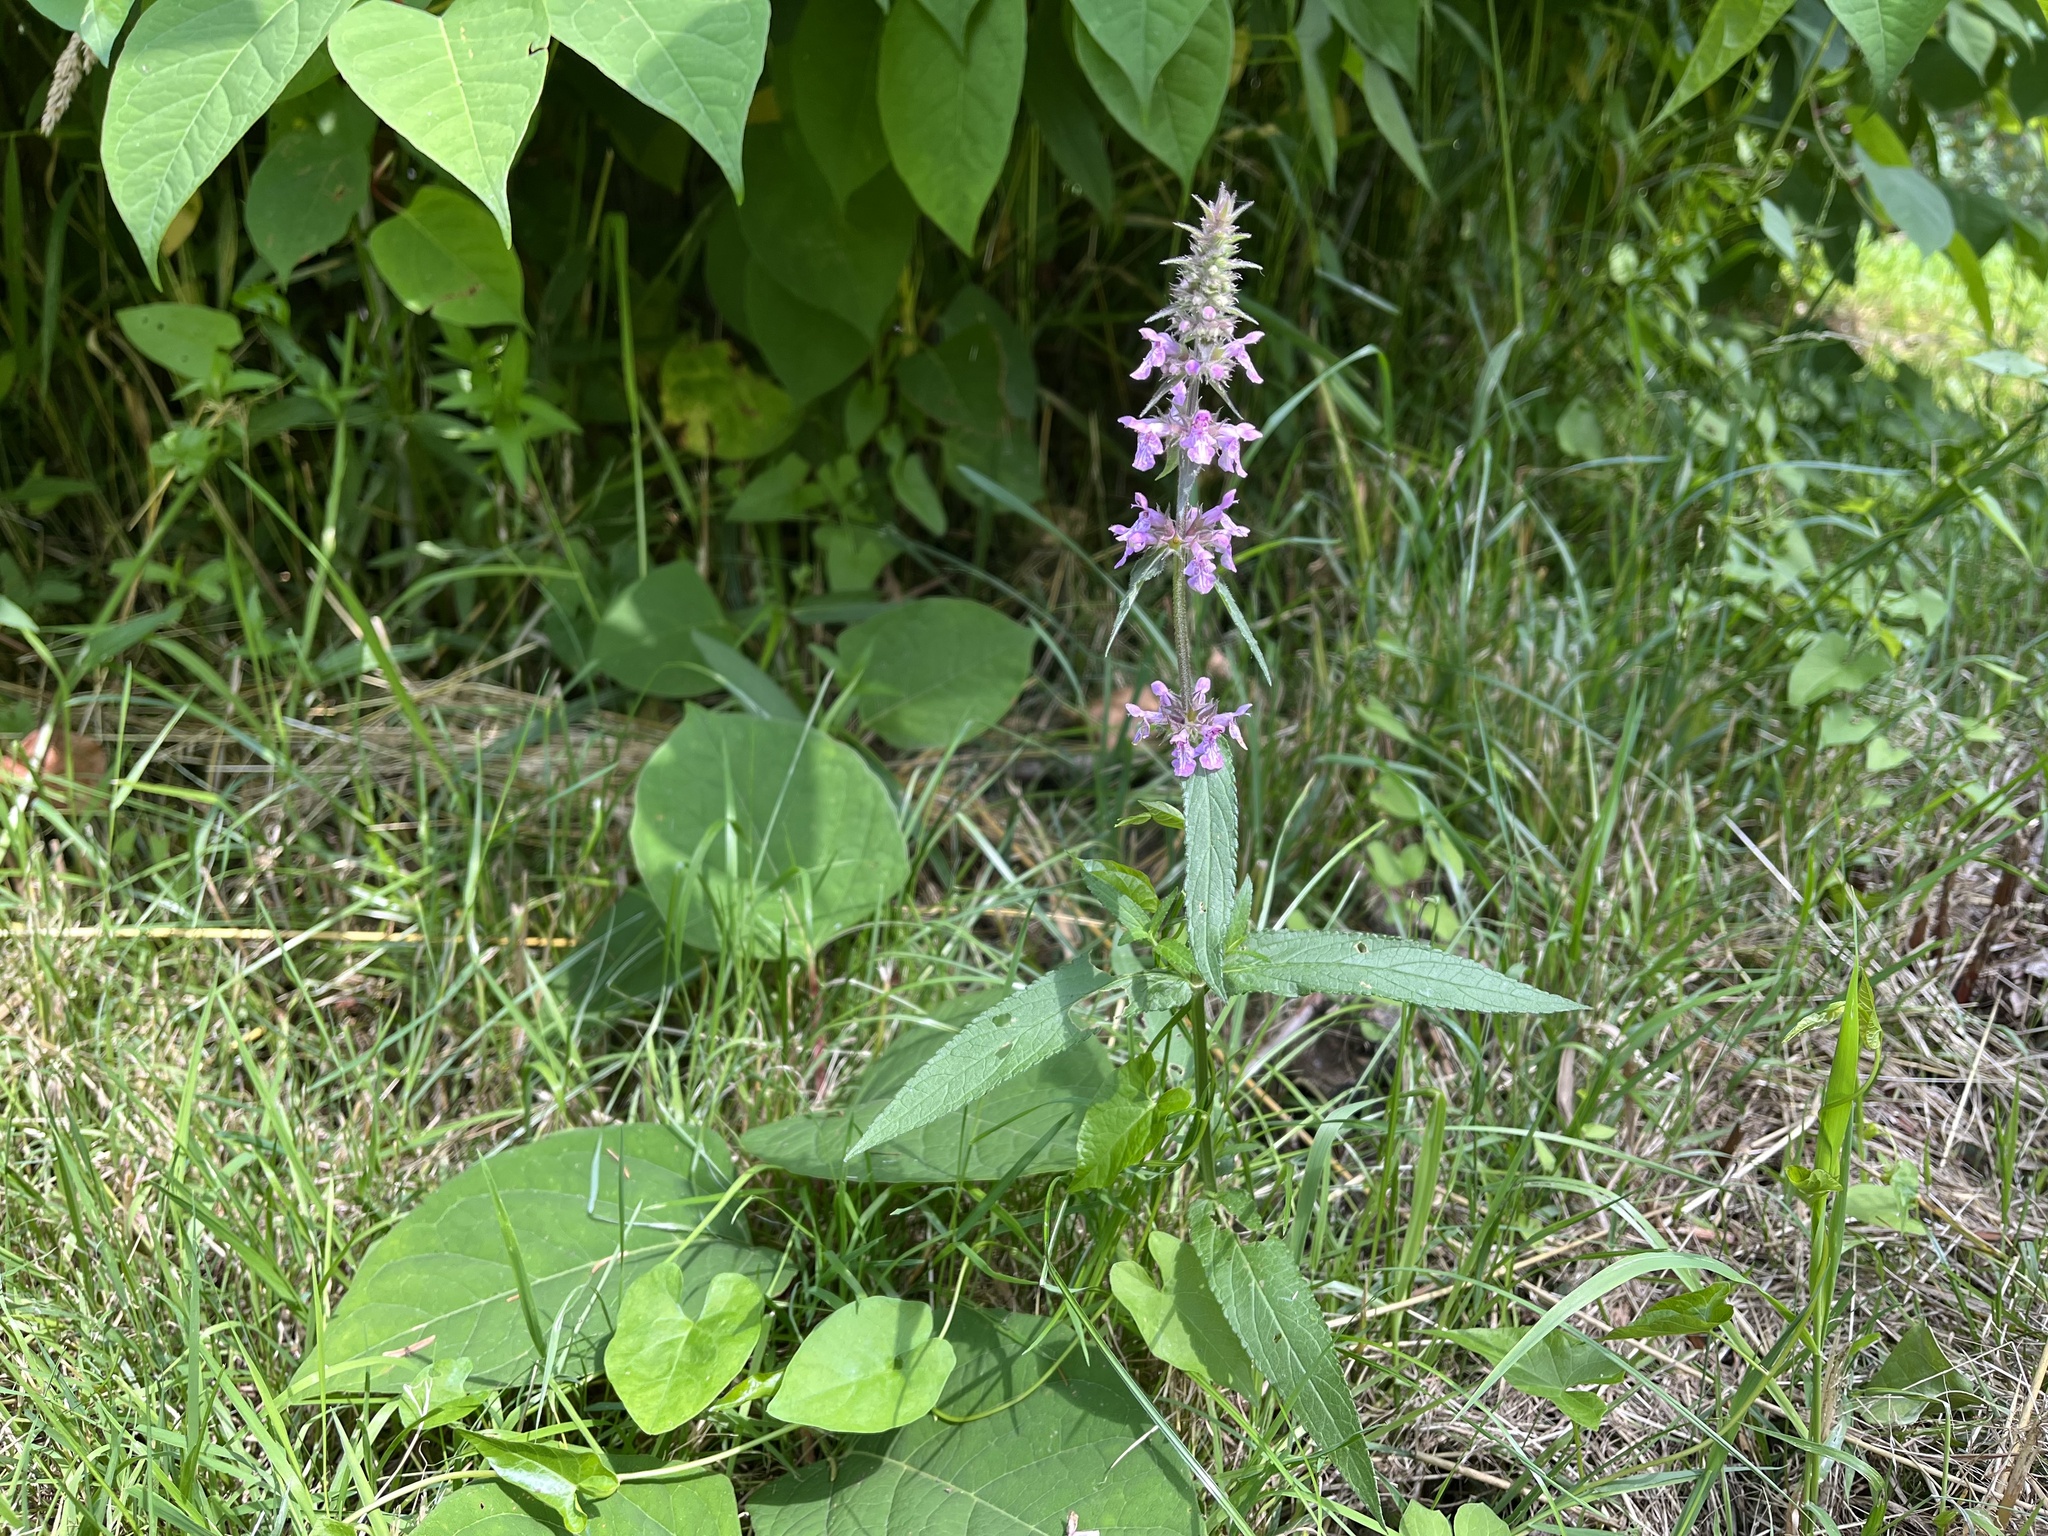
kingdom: Plantae
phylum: Tracheophyta
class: Magnoliopsida
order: Lamiales
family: Lamiaceae
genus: Stachys
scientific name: Stachys palustris
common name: Marsh woundwort
